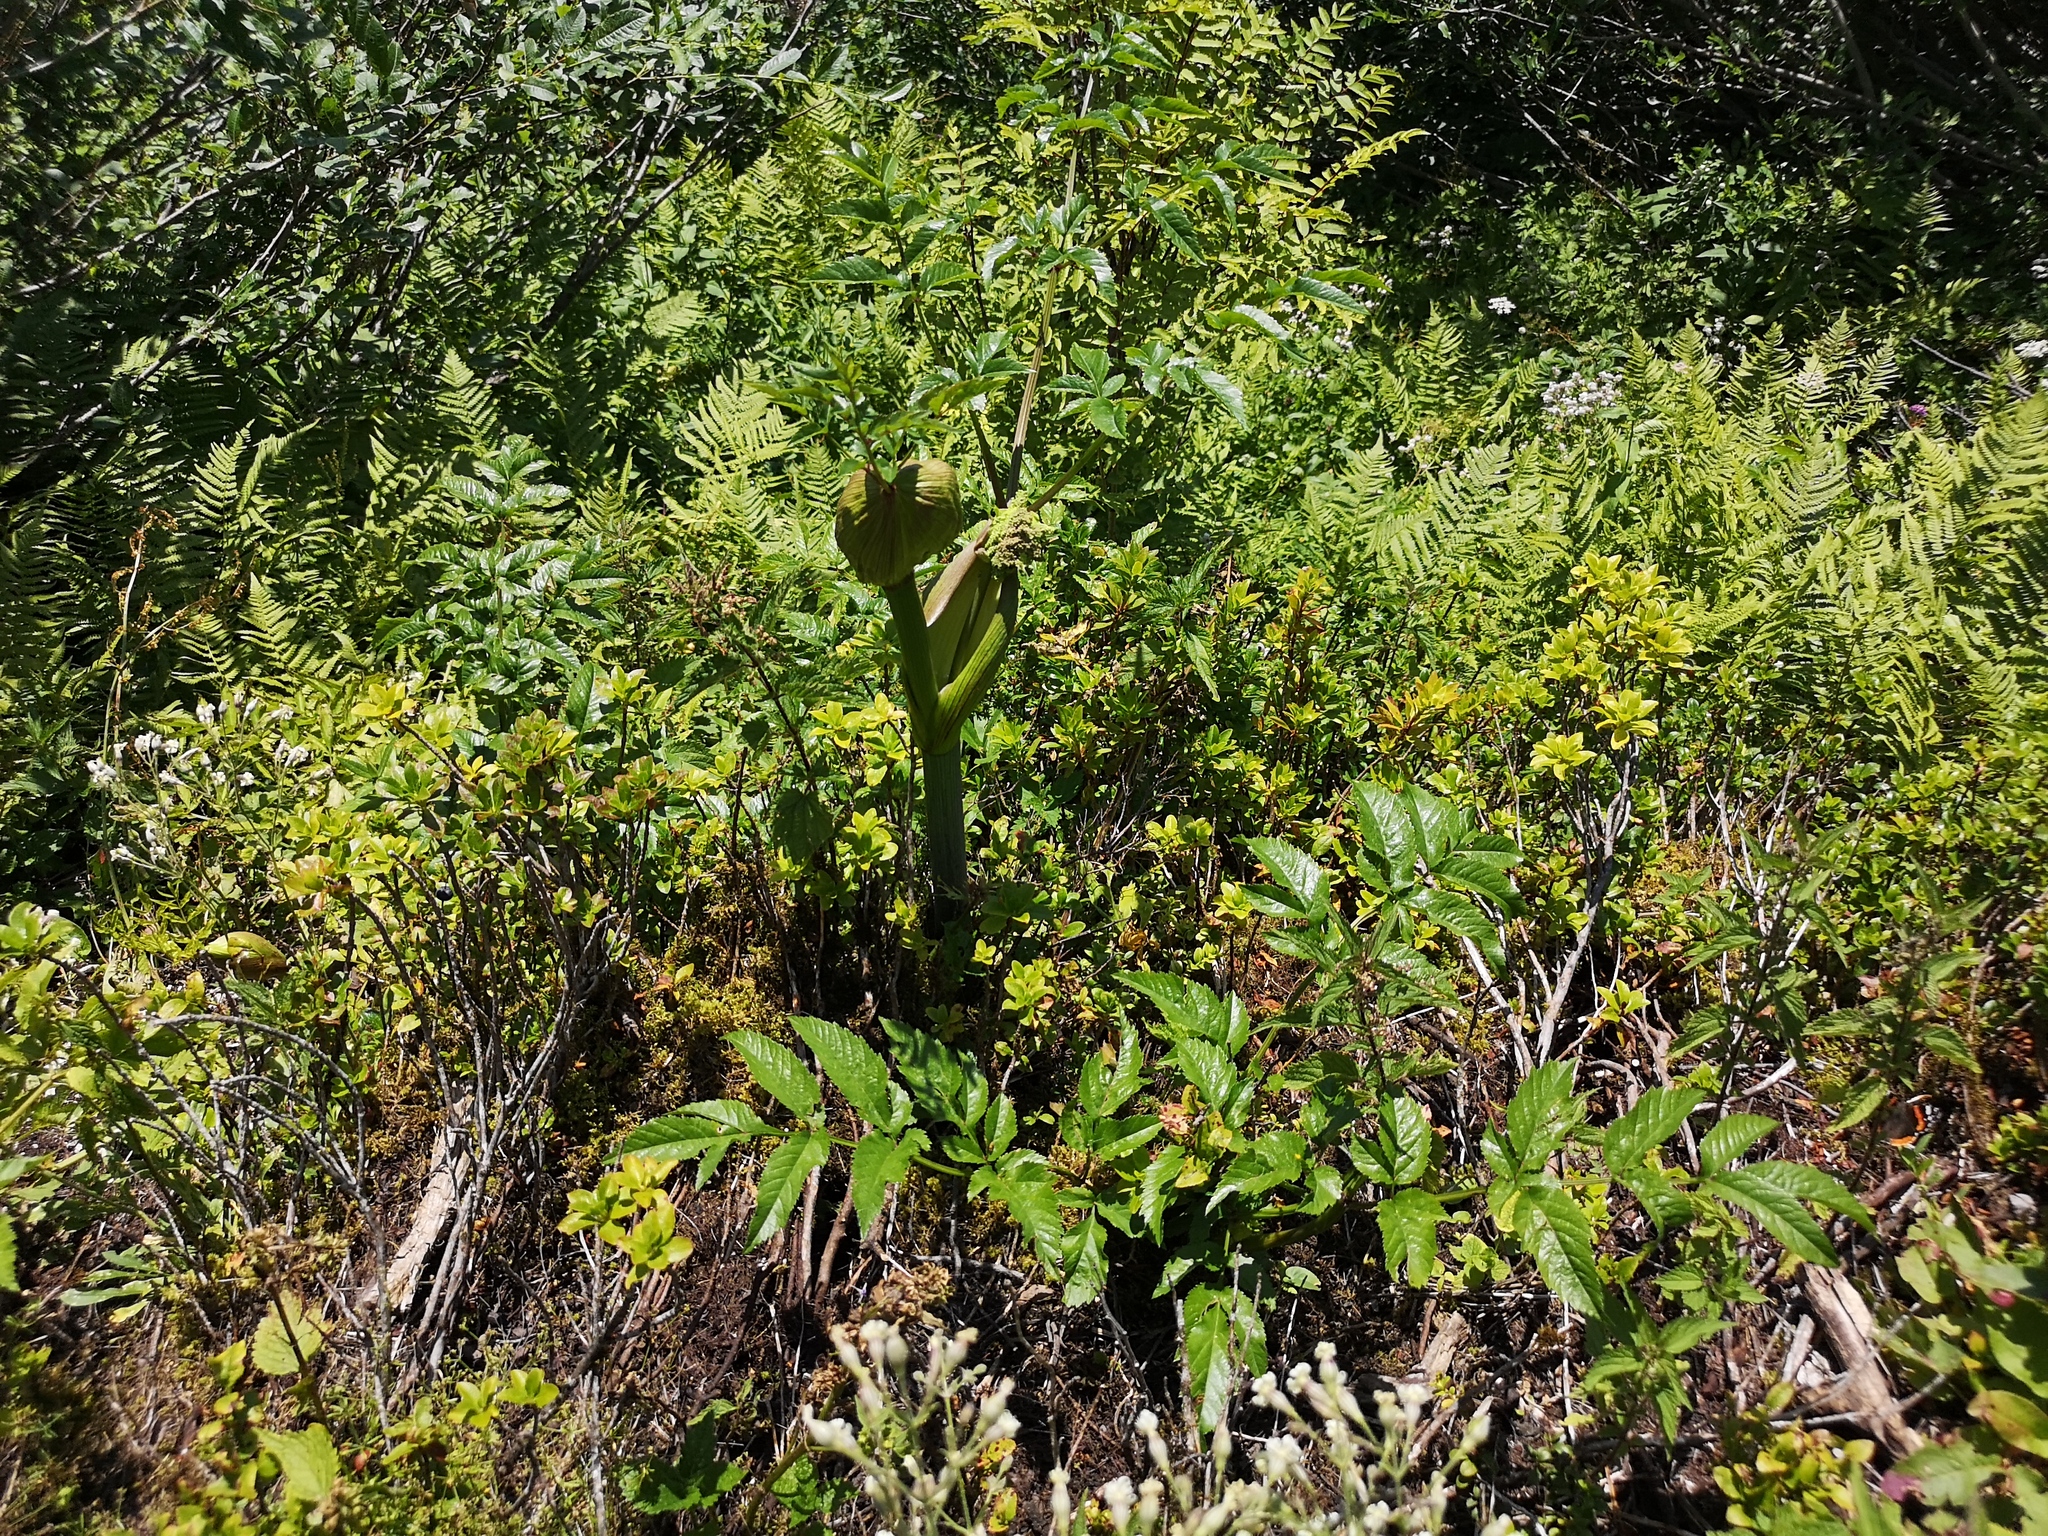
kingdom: Plantae
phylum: Tracheophyta
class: Magnoliopsida
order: Apiales
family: Apiaceae
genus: Angelica
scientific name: Angelica sylvestris
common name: Wild angelica
